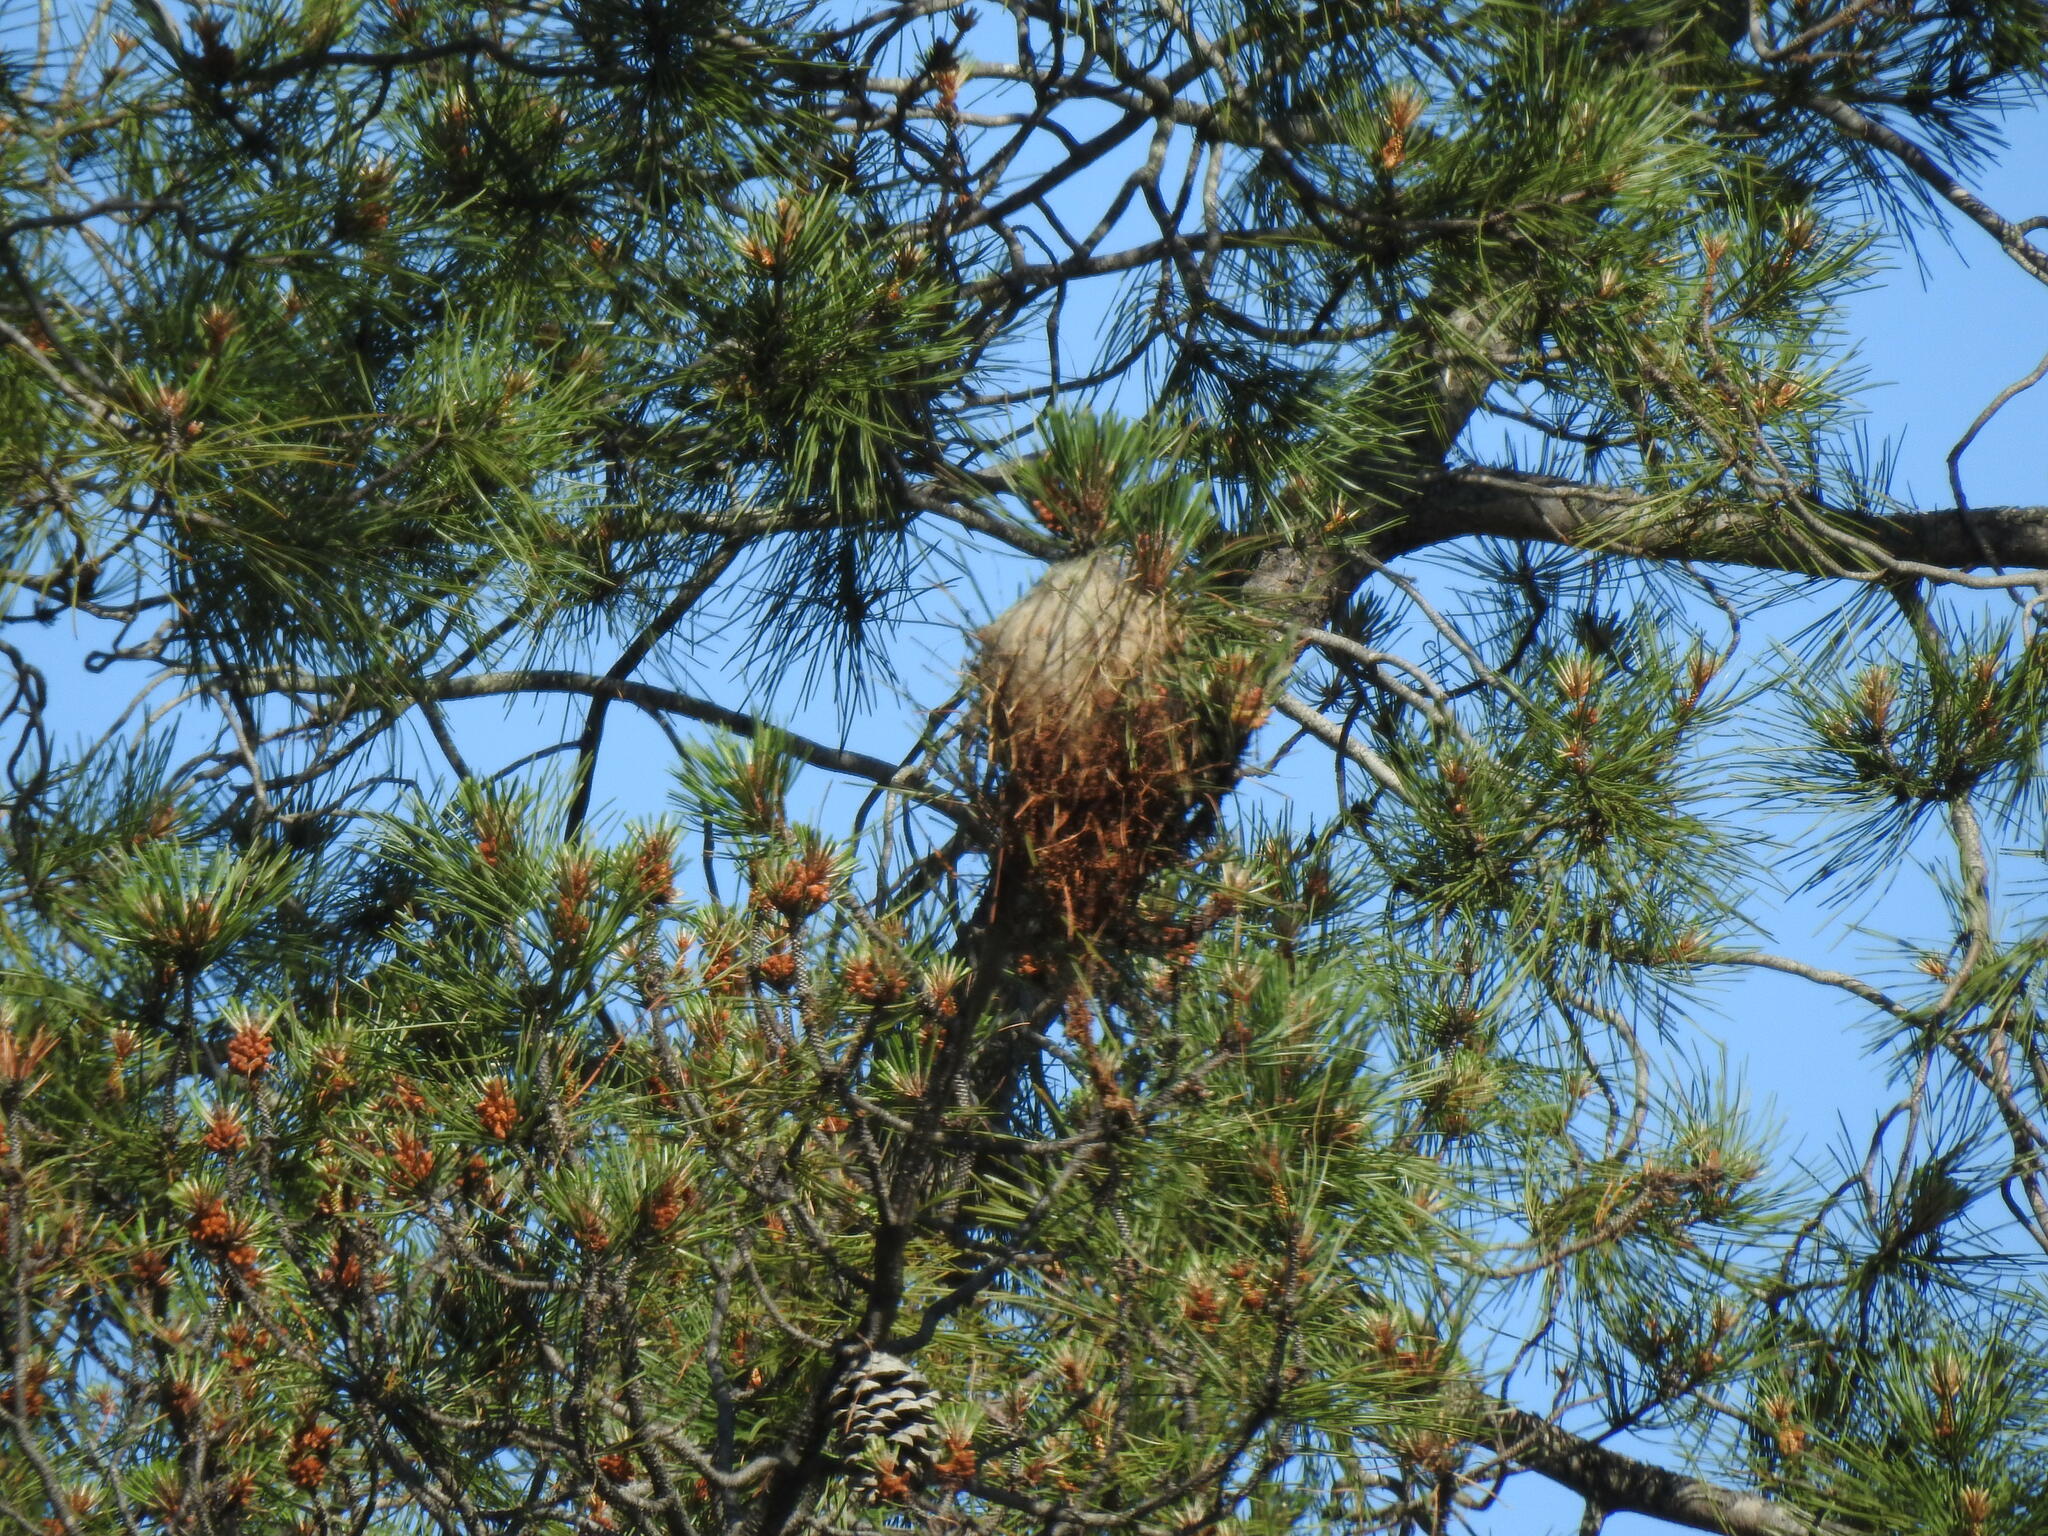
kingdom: Animalia
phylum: Arthropoda
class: Insecta
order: Lepidoptera
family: Notodontidae
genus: Thaumetopoea
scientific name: Thaumetopoea pityocampa
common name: Pine processionary
